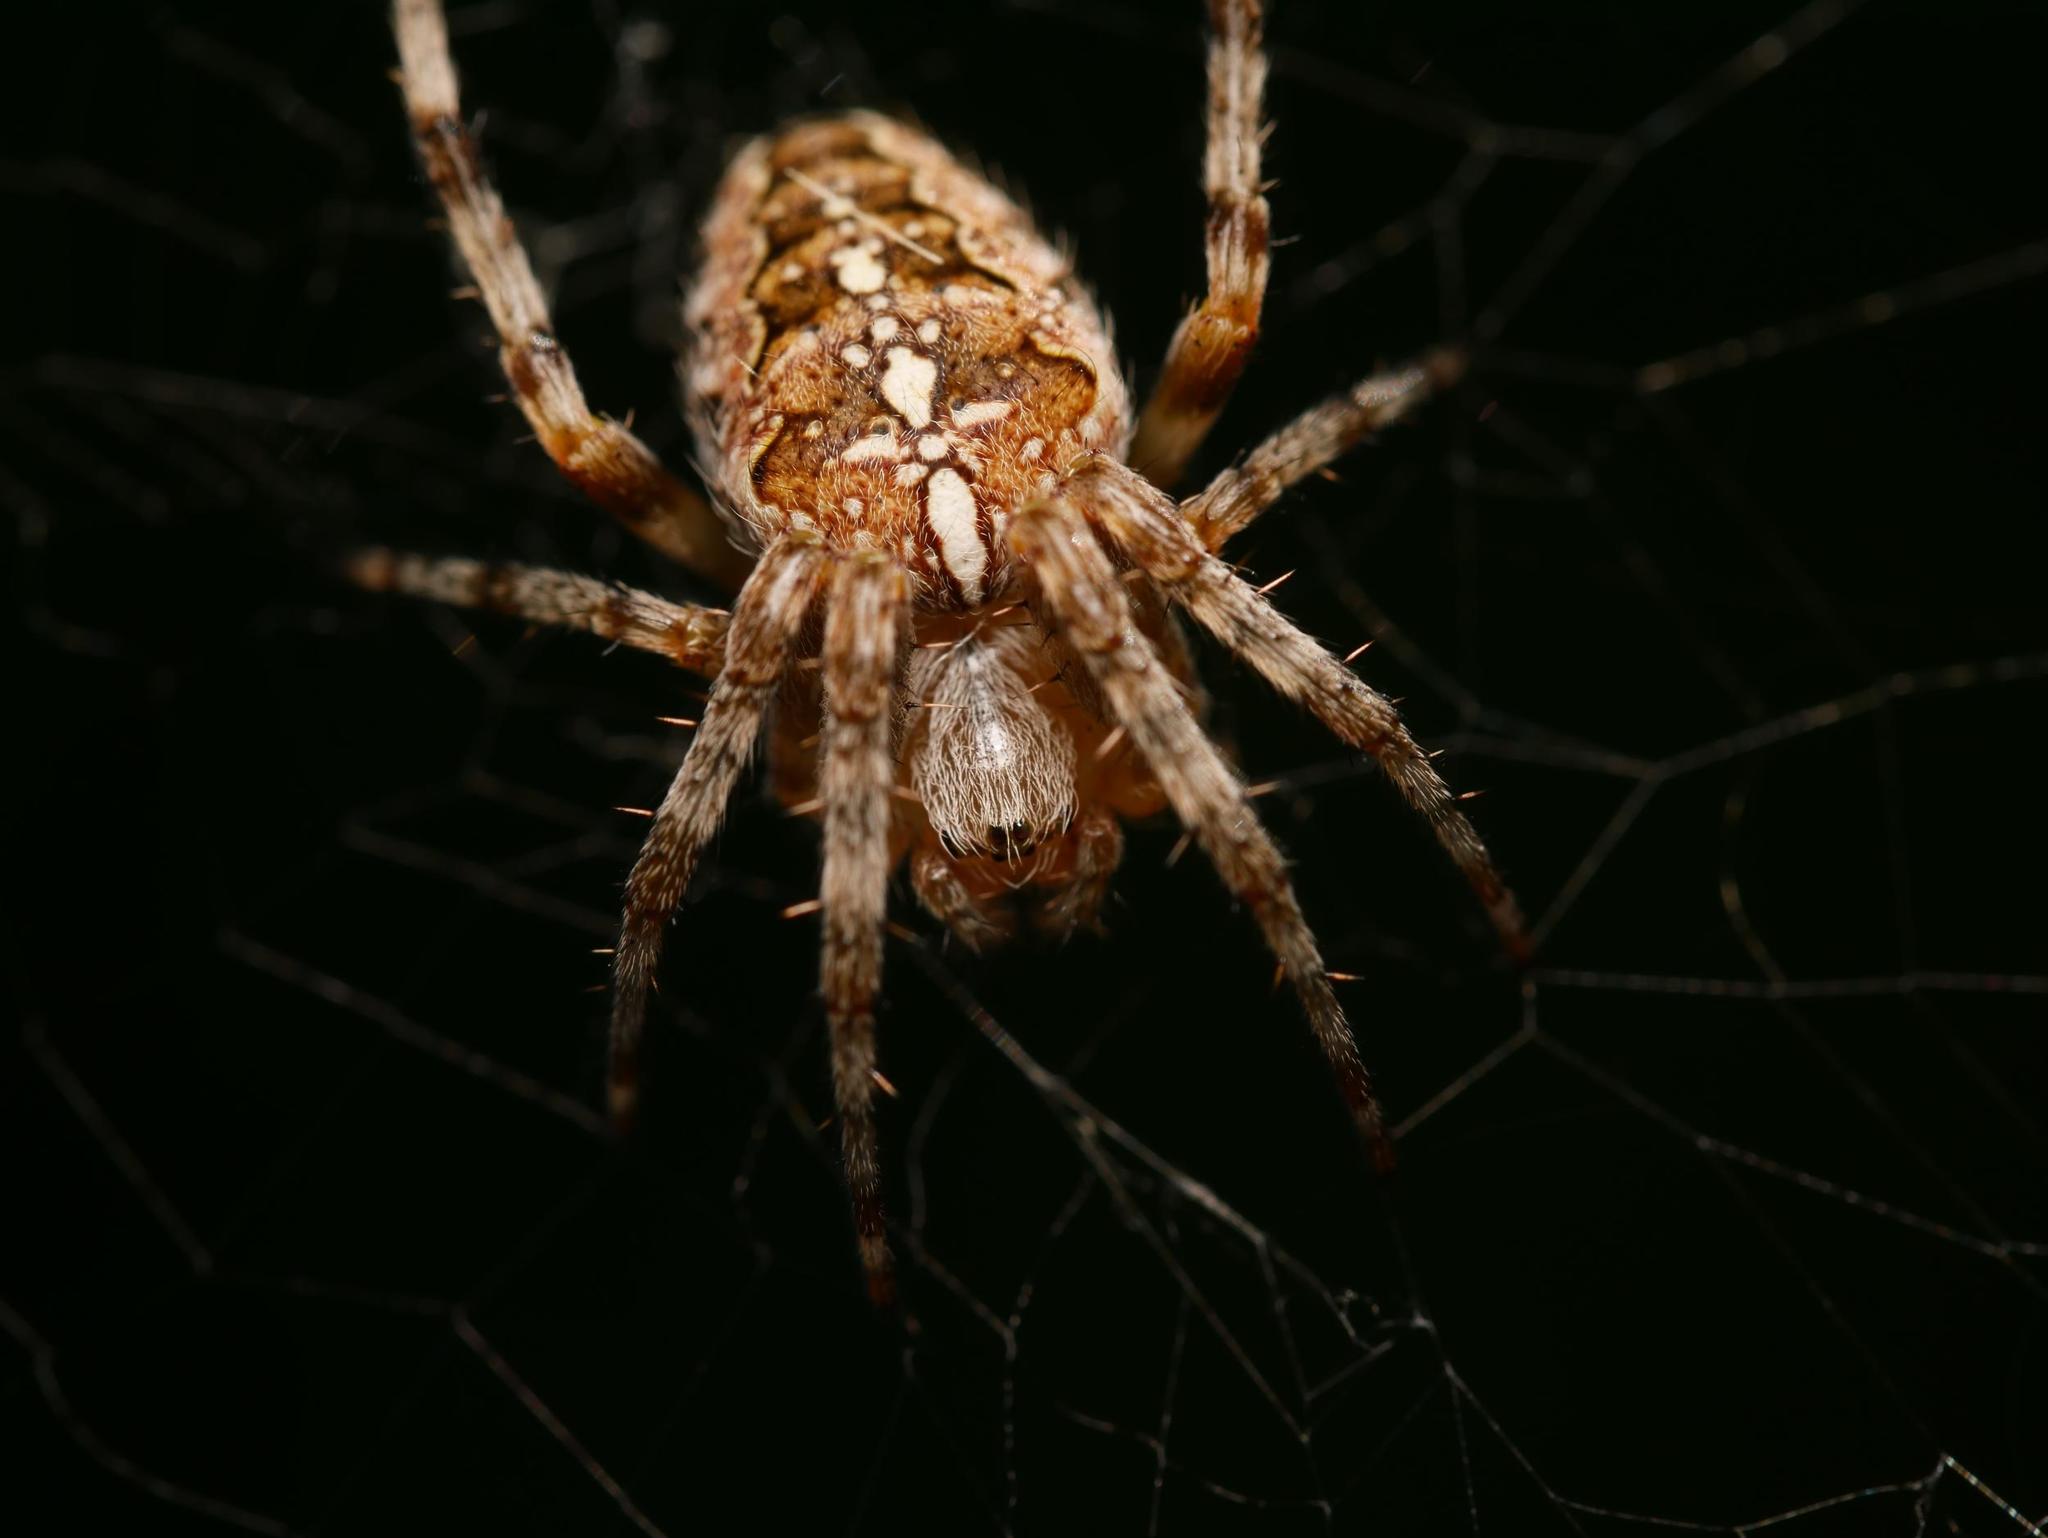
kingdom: Animalia
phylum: Arthropoda
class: Arachnida
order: Araneae
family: Araneidae
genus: Araneus
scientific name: Araneus diadematus
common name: Cross orbweaver
